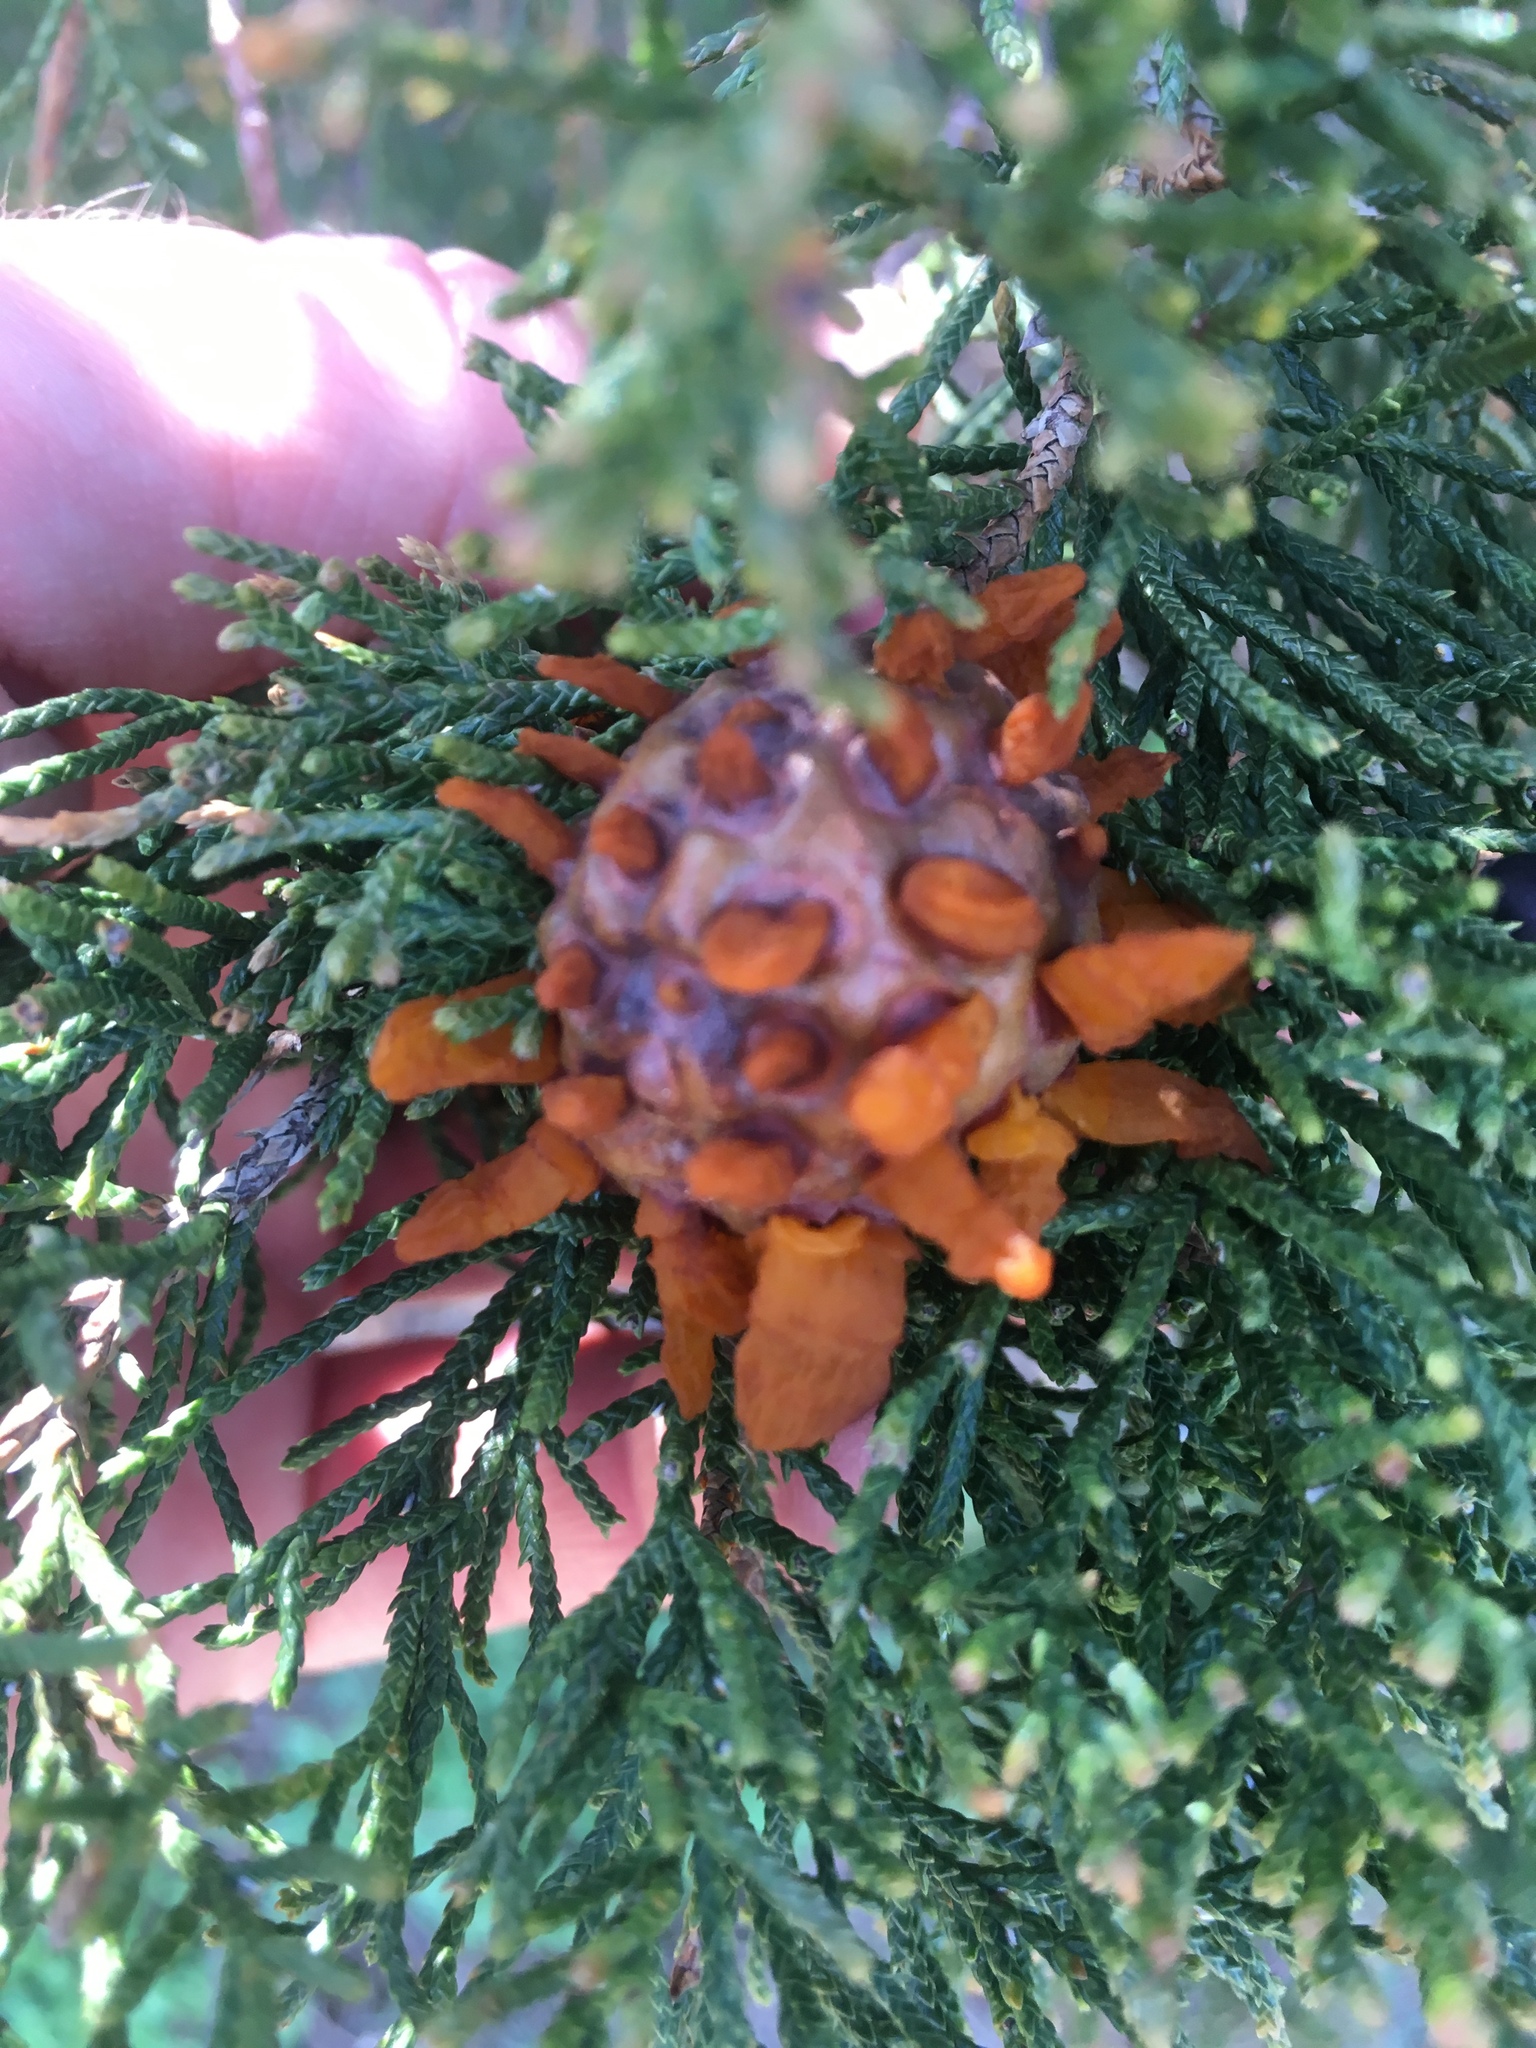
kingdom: Fungi
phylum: Basidiomycota
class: Pucciniomycetes
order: Pucciniales
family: Gymnosporangiaceae
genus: Gymnosporangium
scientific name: Gymnosporangium juniperi-virginianae
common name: Juniper-apple rust
